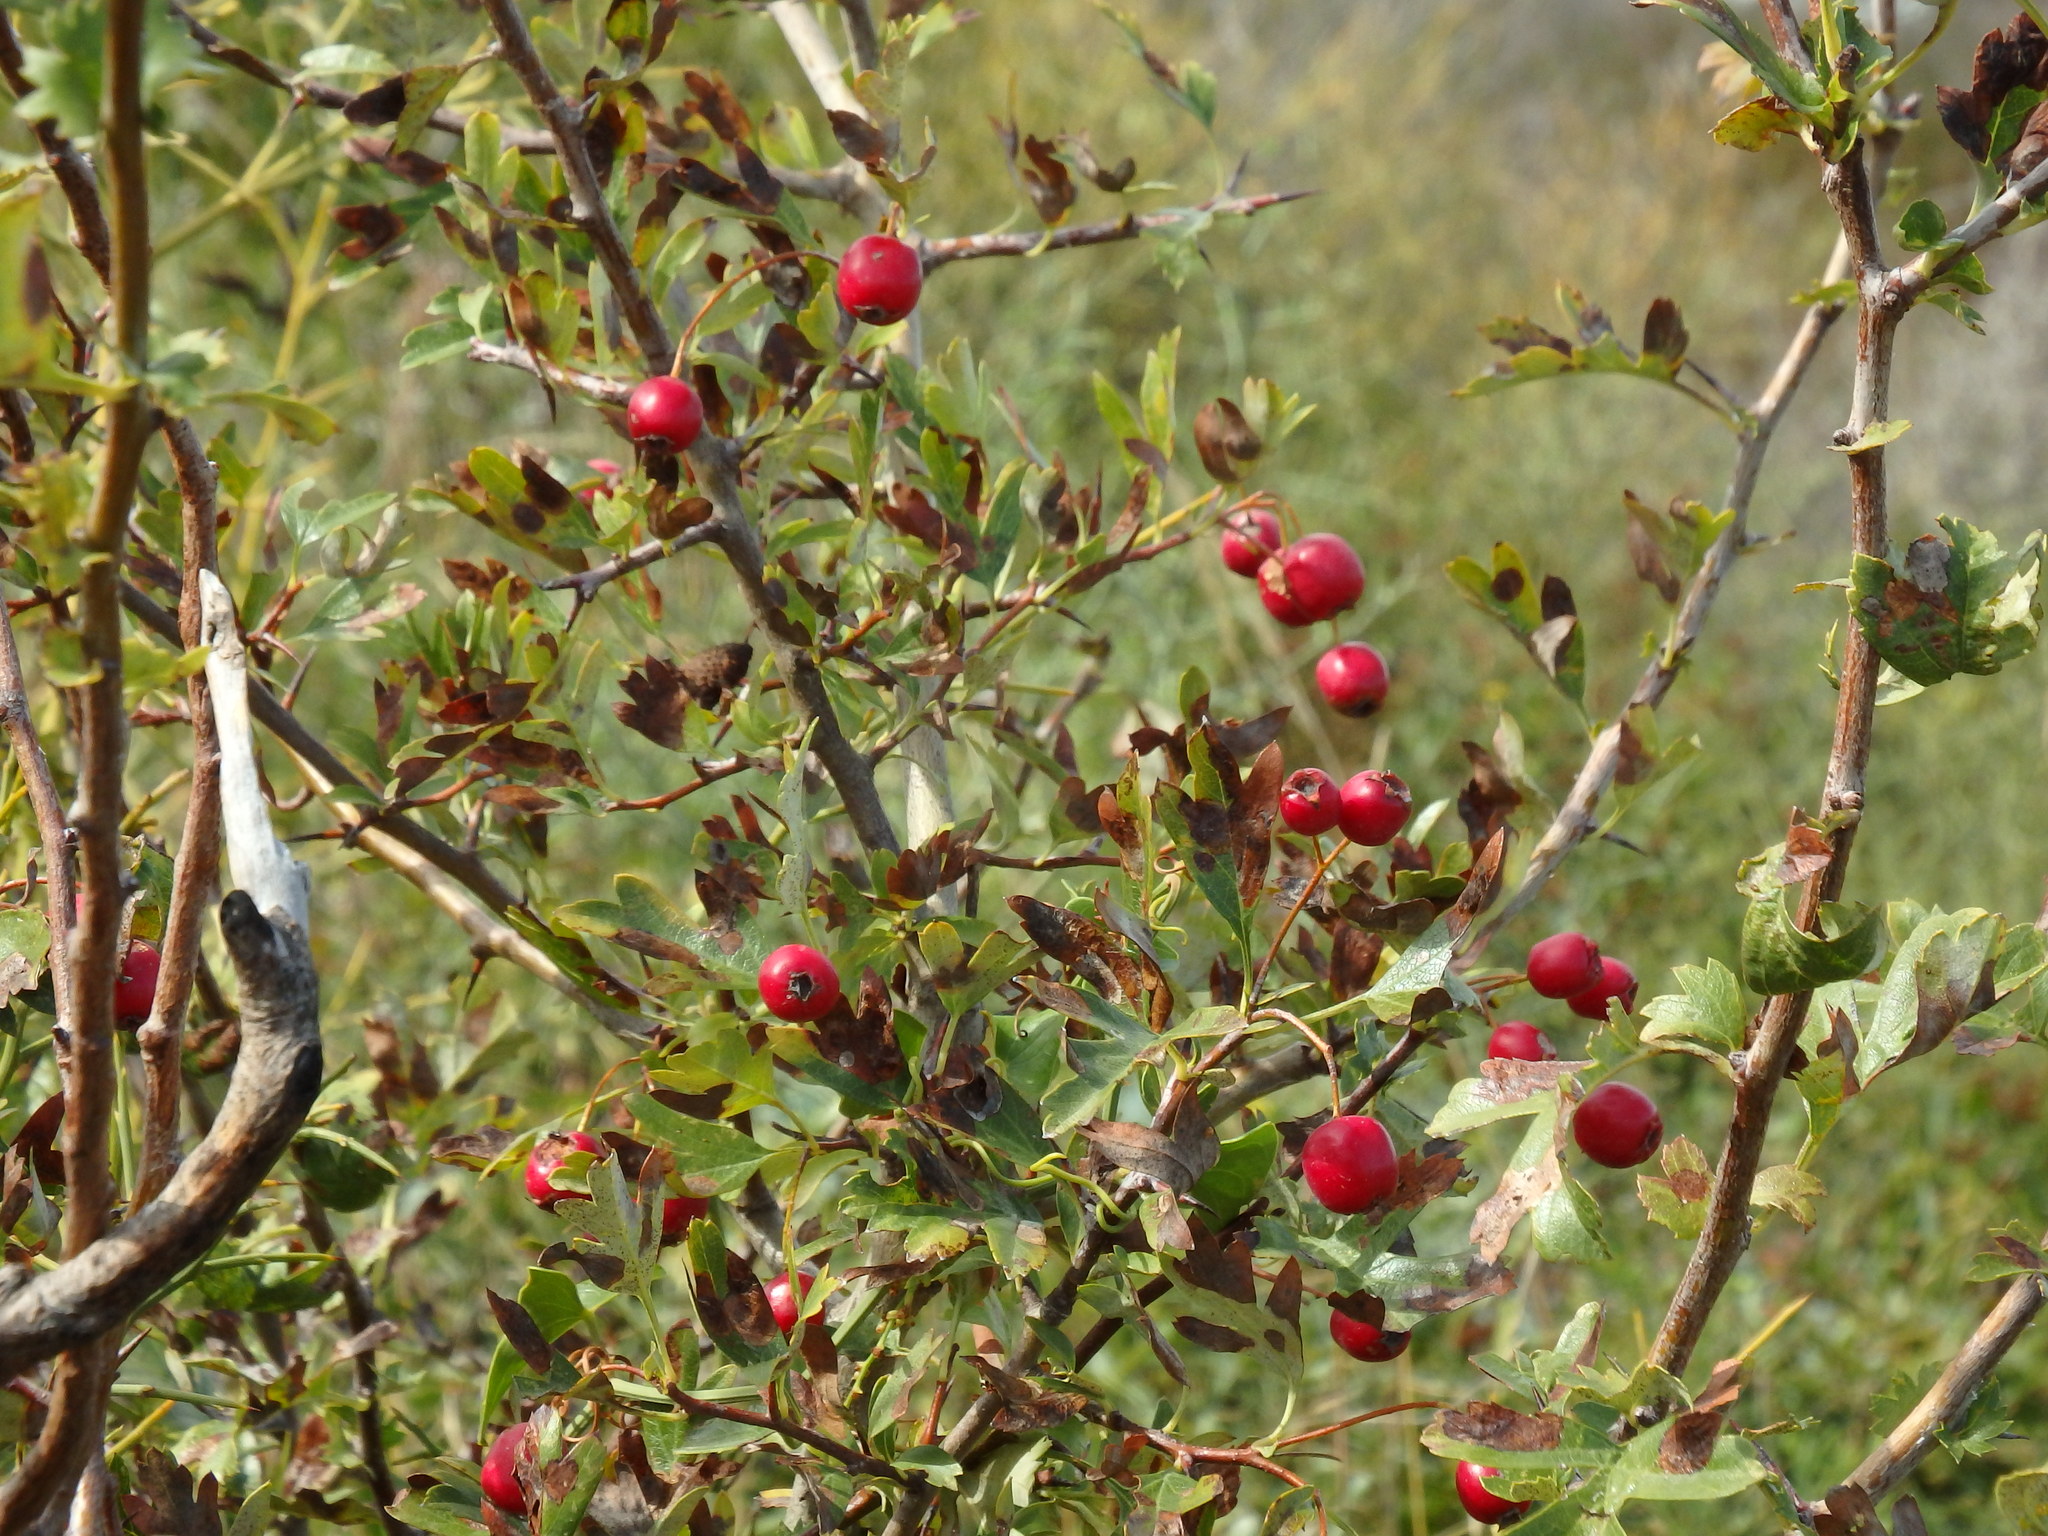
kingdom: Plantae
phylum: Tracheophyta
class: Magnoliopsida
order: Rosales
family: Rosaceae
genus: Crataegus
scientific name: Crataegus monogyna
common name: Hawthorn
